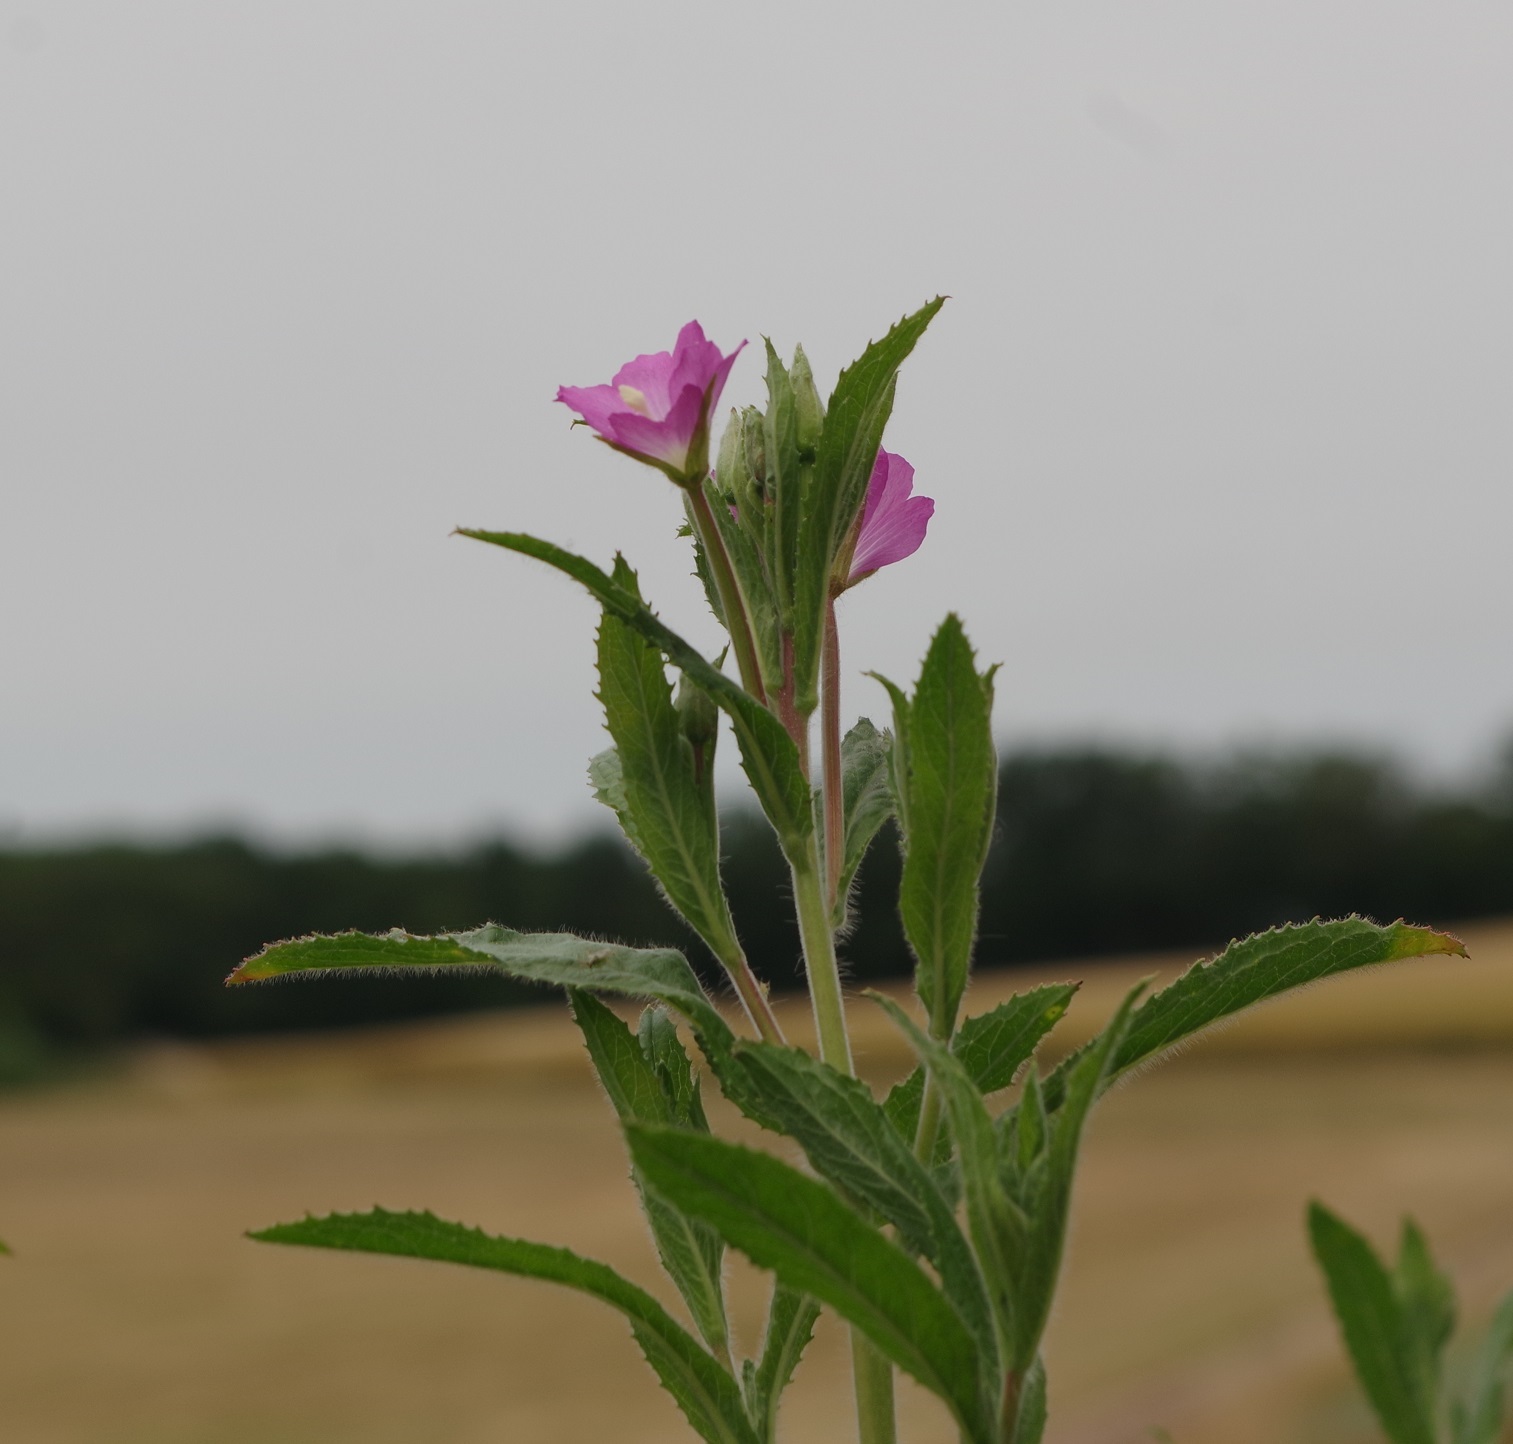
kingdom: Plantae
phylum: Tracheophyta
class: Magnoliopsida
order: Myrtales
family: Onagraceae
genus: Epilobium
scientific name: Epilobium hirsutum
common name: Great willowherb
